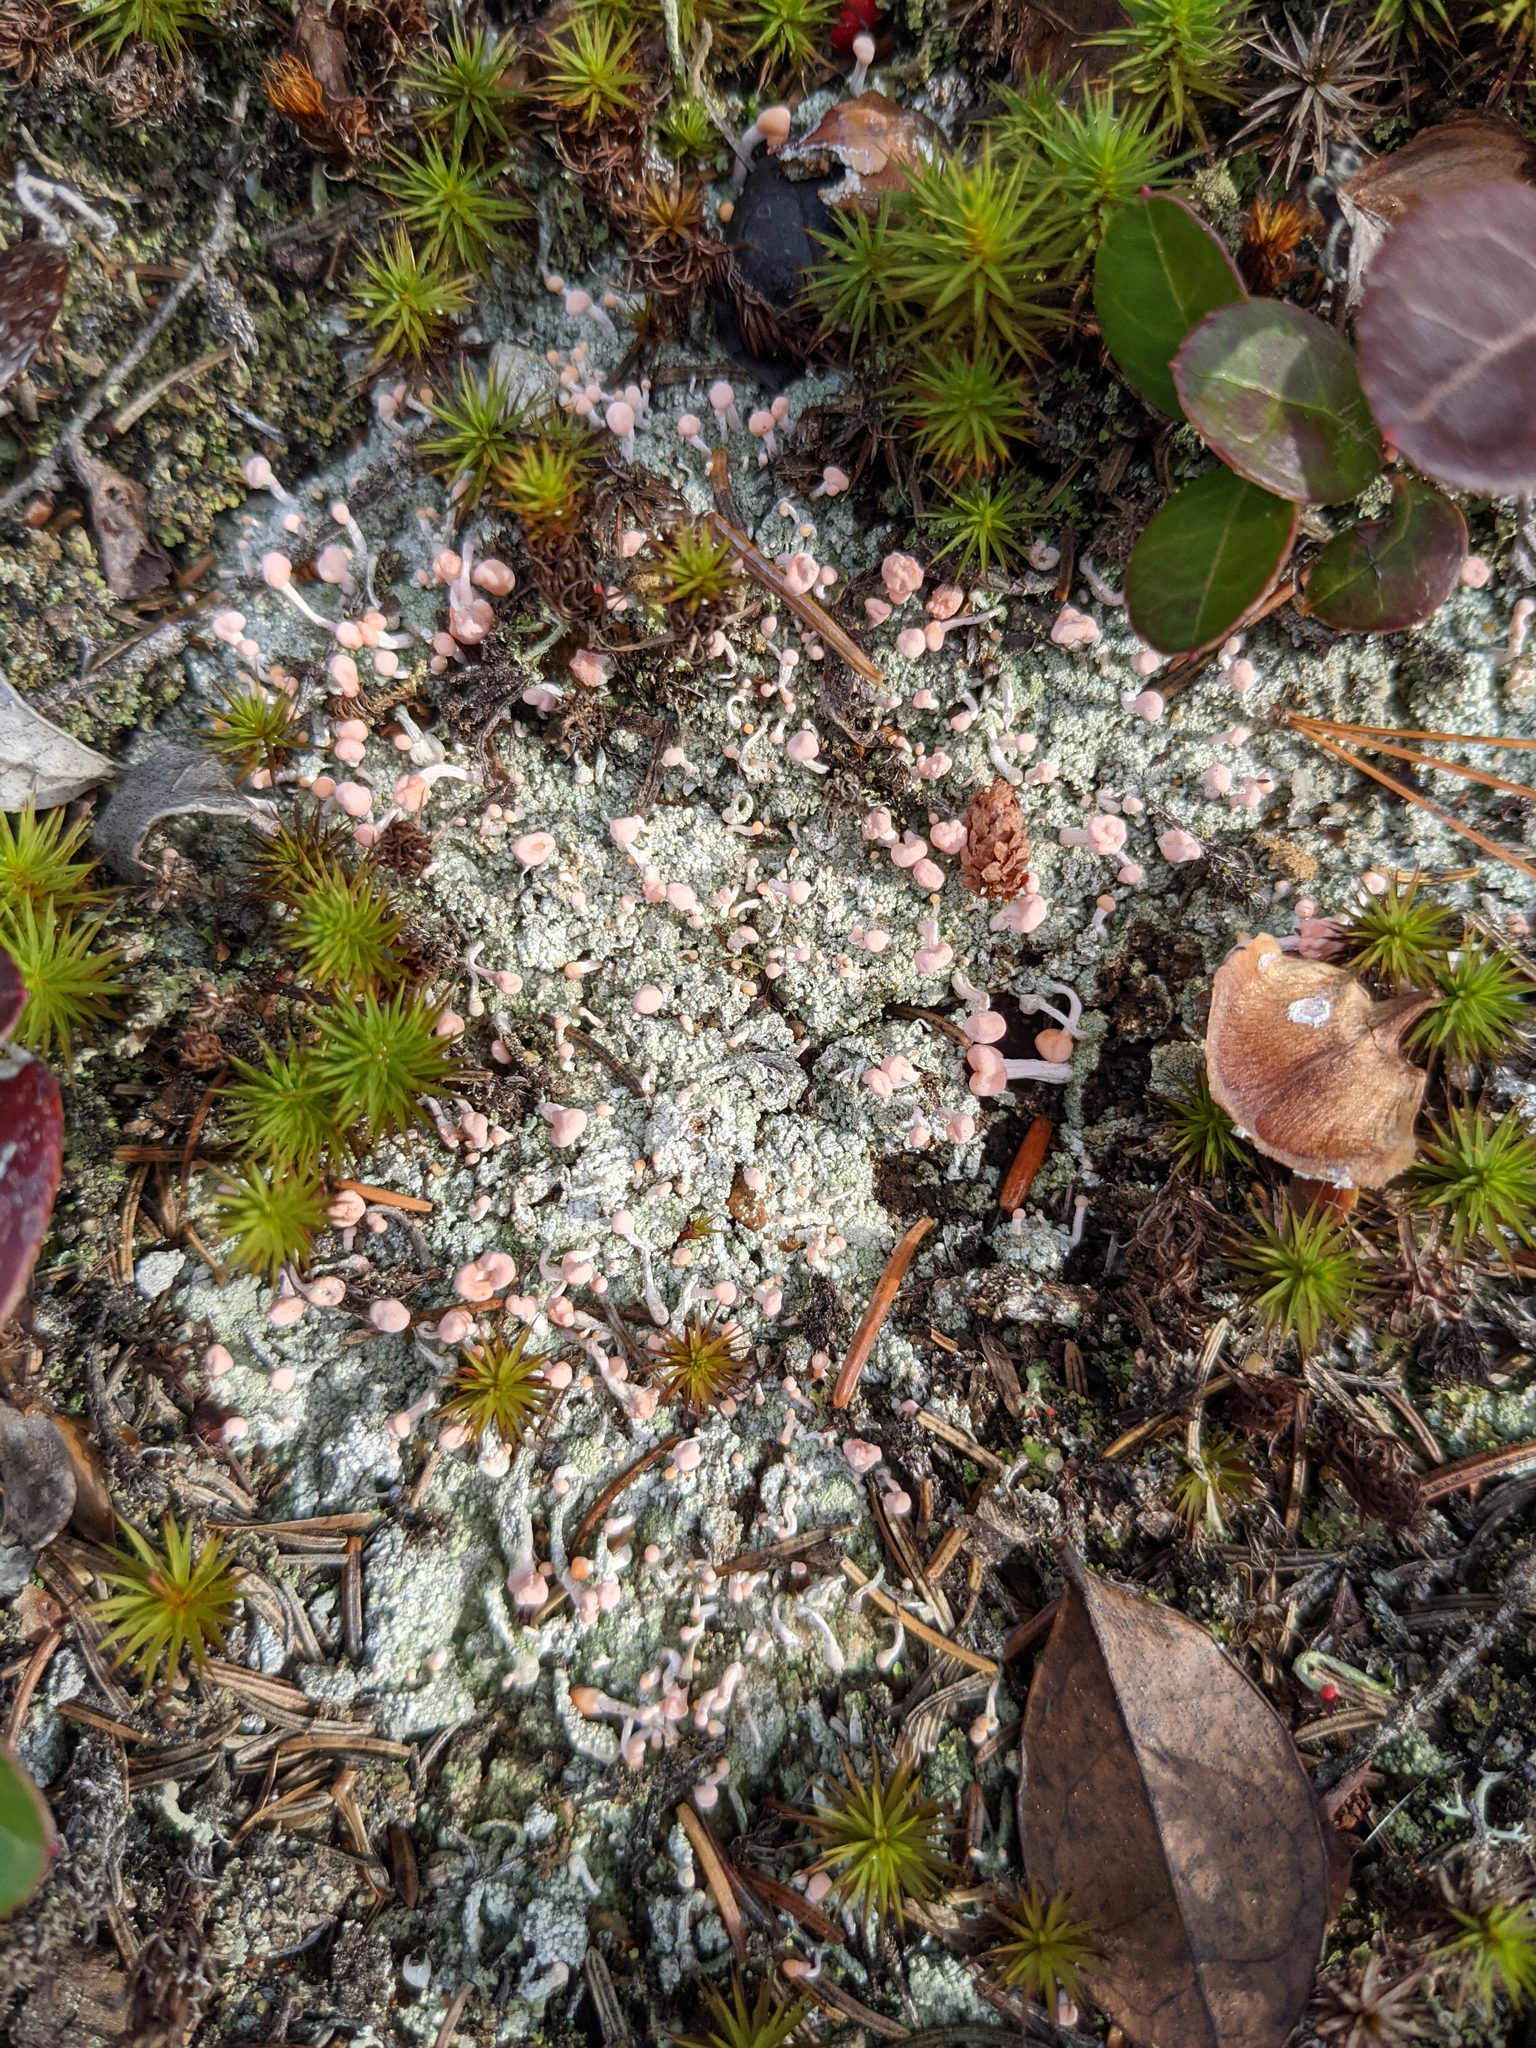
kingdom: Fungi
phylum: Ascomycota
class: Lecanoromycetes
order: Pertusariales
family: Icmadophilaceae
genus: Dibaeis
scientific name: Dibaeis baeomyces
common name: Pink earth lichen
